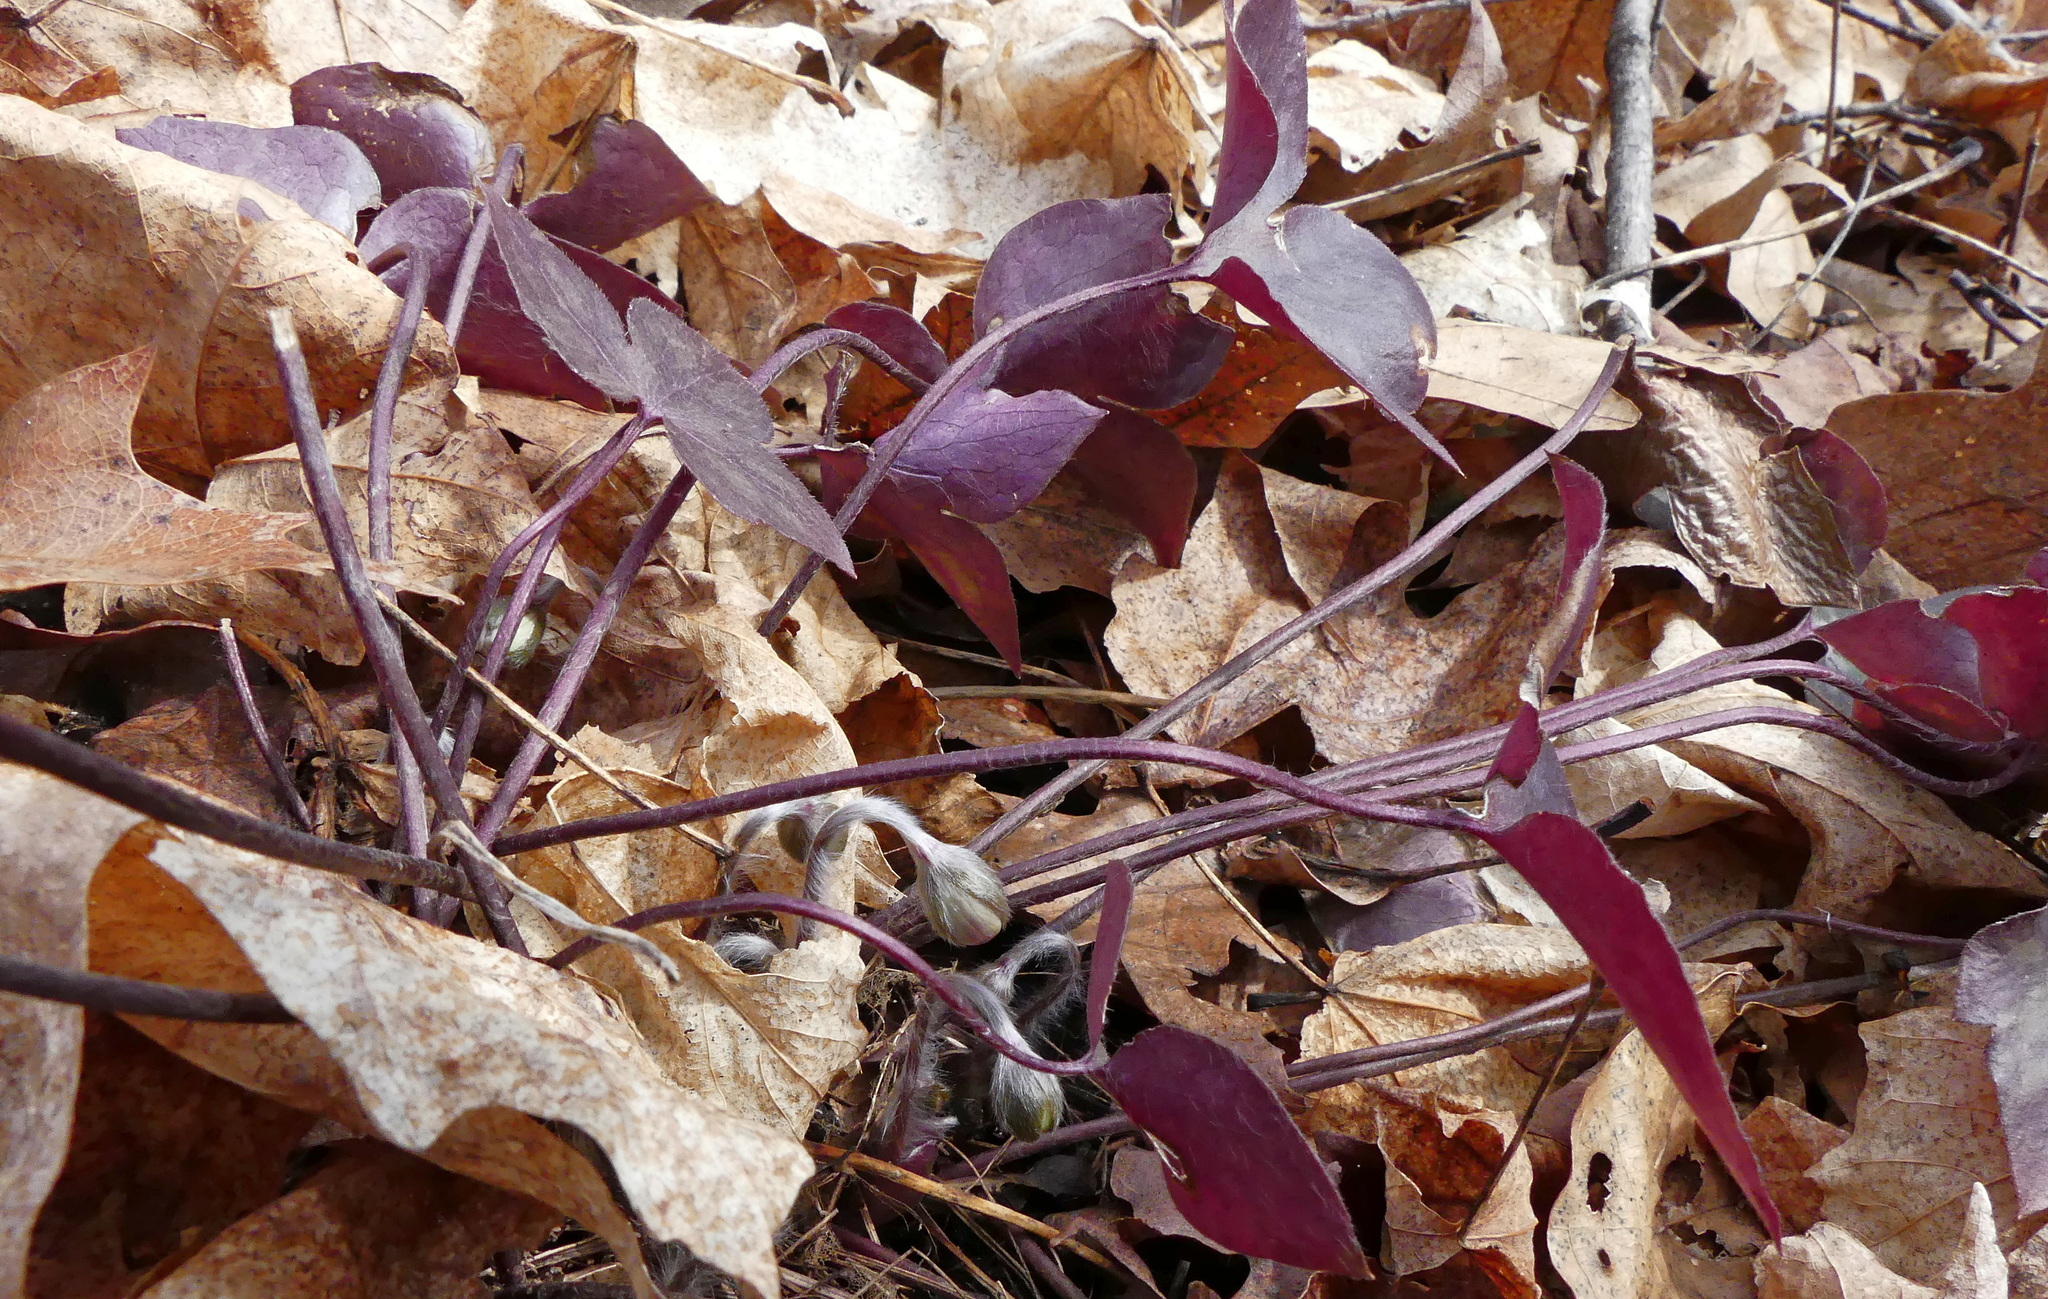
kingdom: Plantae
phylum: Tracheophyta
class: Magnoliopsida
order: Ranunculales
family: Ranunculaceae
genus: Hepatica
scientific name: Hepatica acutiloba
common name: Sharp-lobed hepatica
